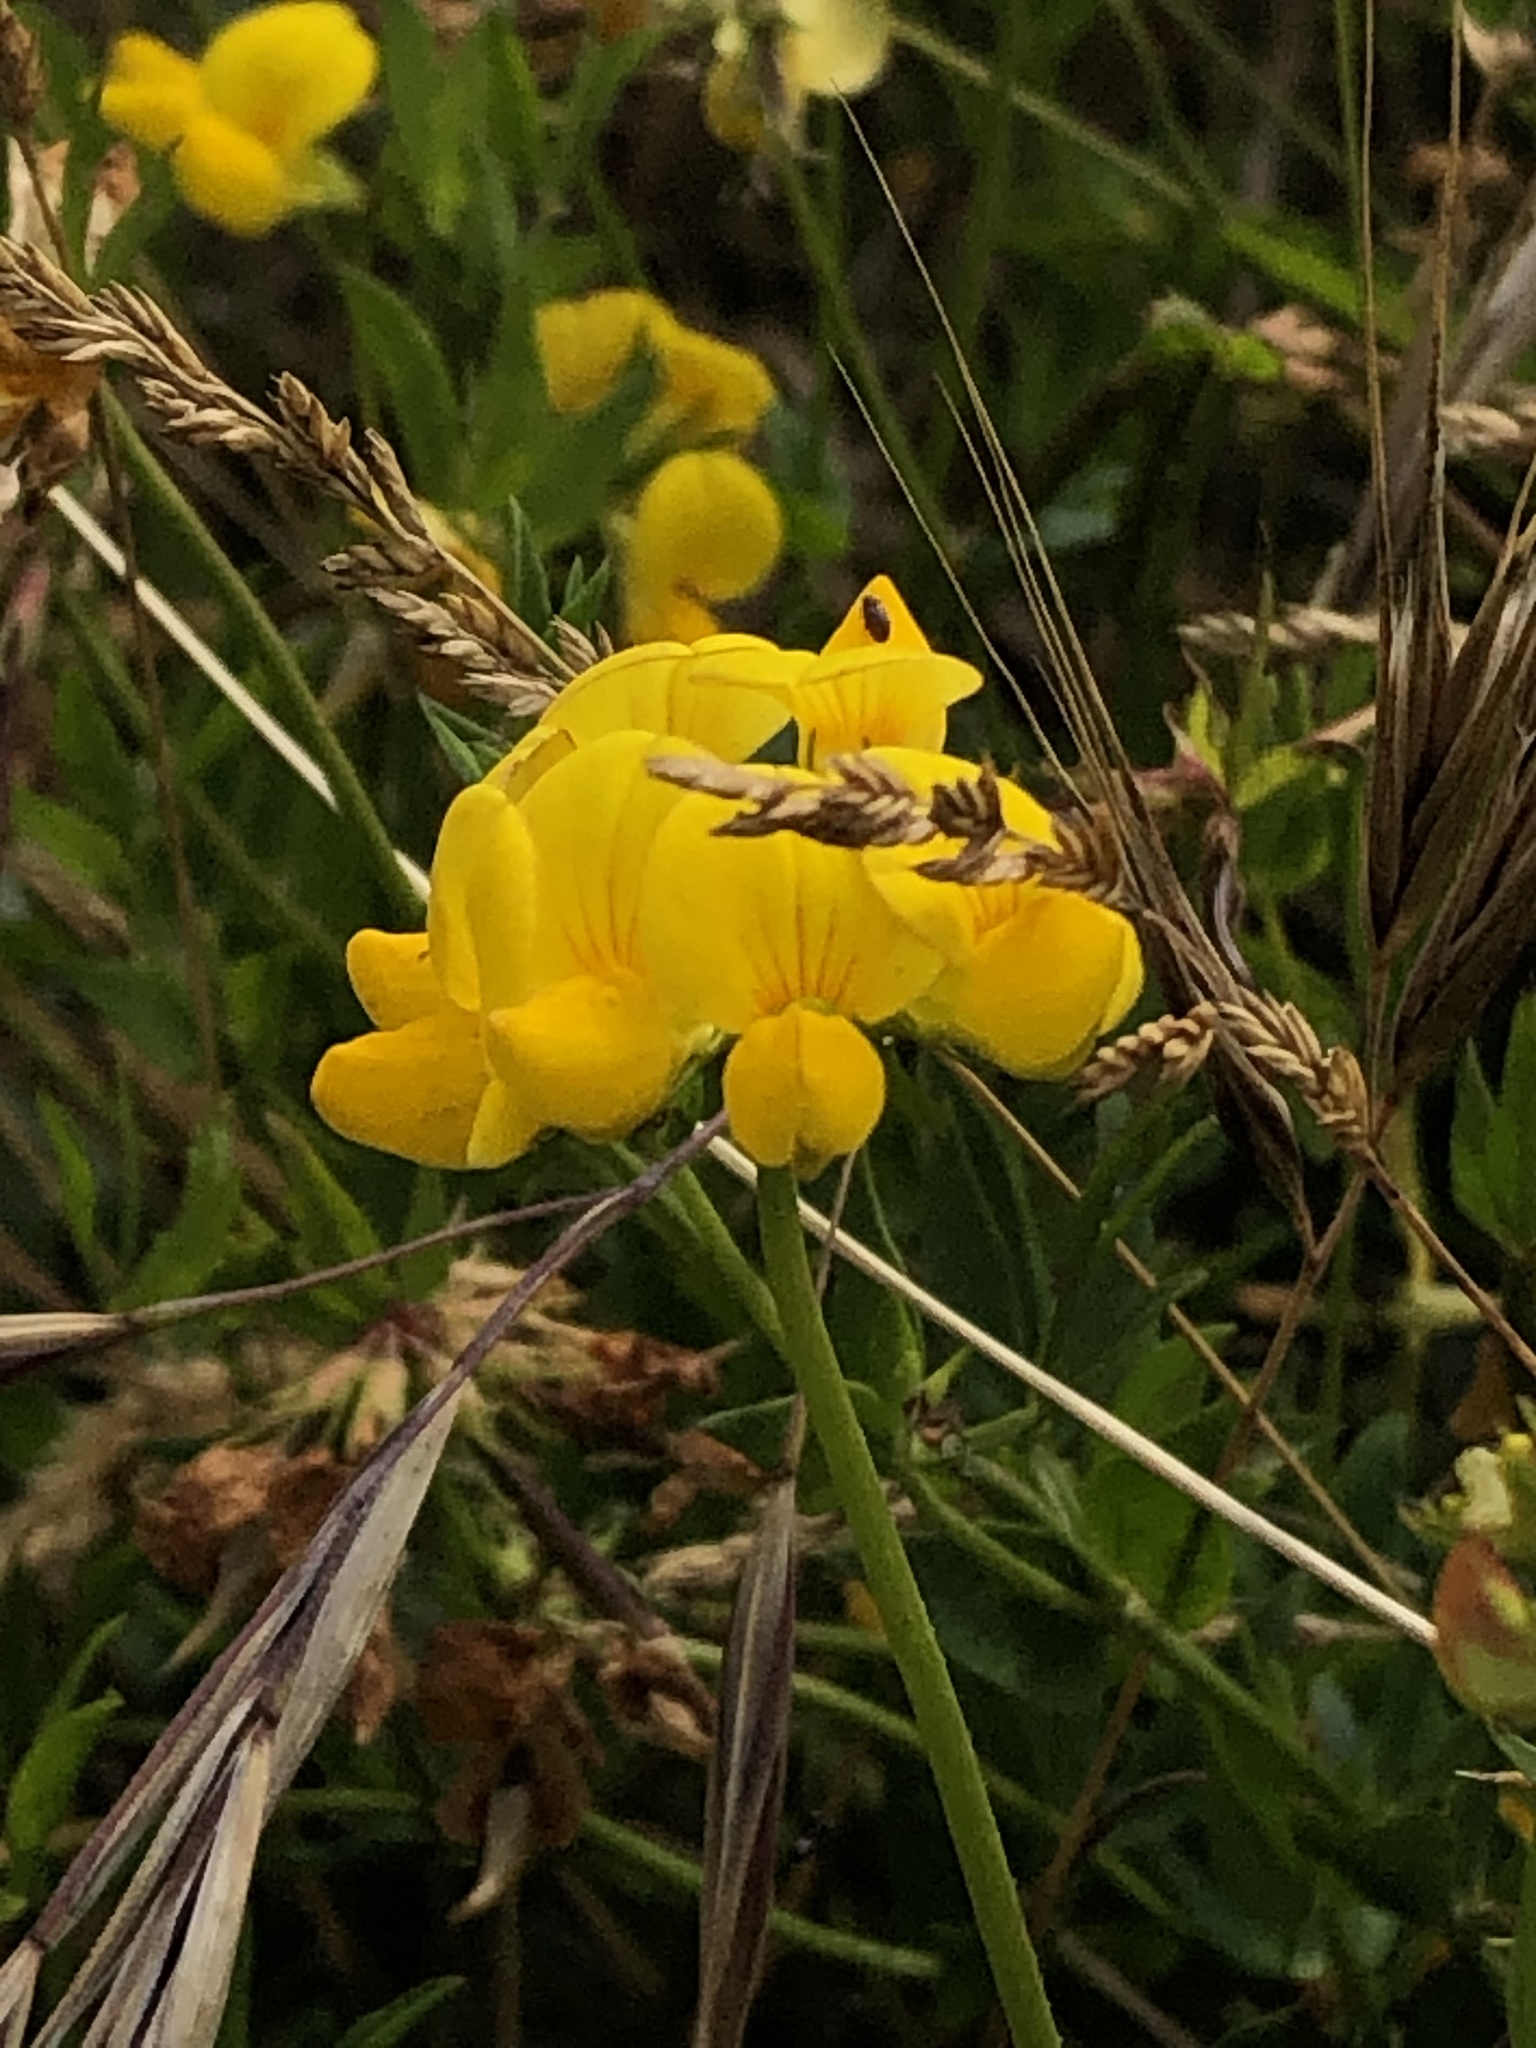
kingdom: Plantae
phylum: Tracheophyta
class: Magnoliopsida
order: Fabales
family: Fabaceae
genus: Lotus
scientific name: Lotus corniculatus
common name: Common bird's-foot-trefoil
